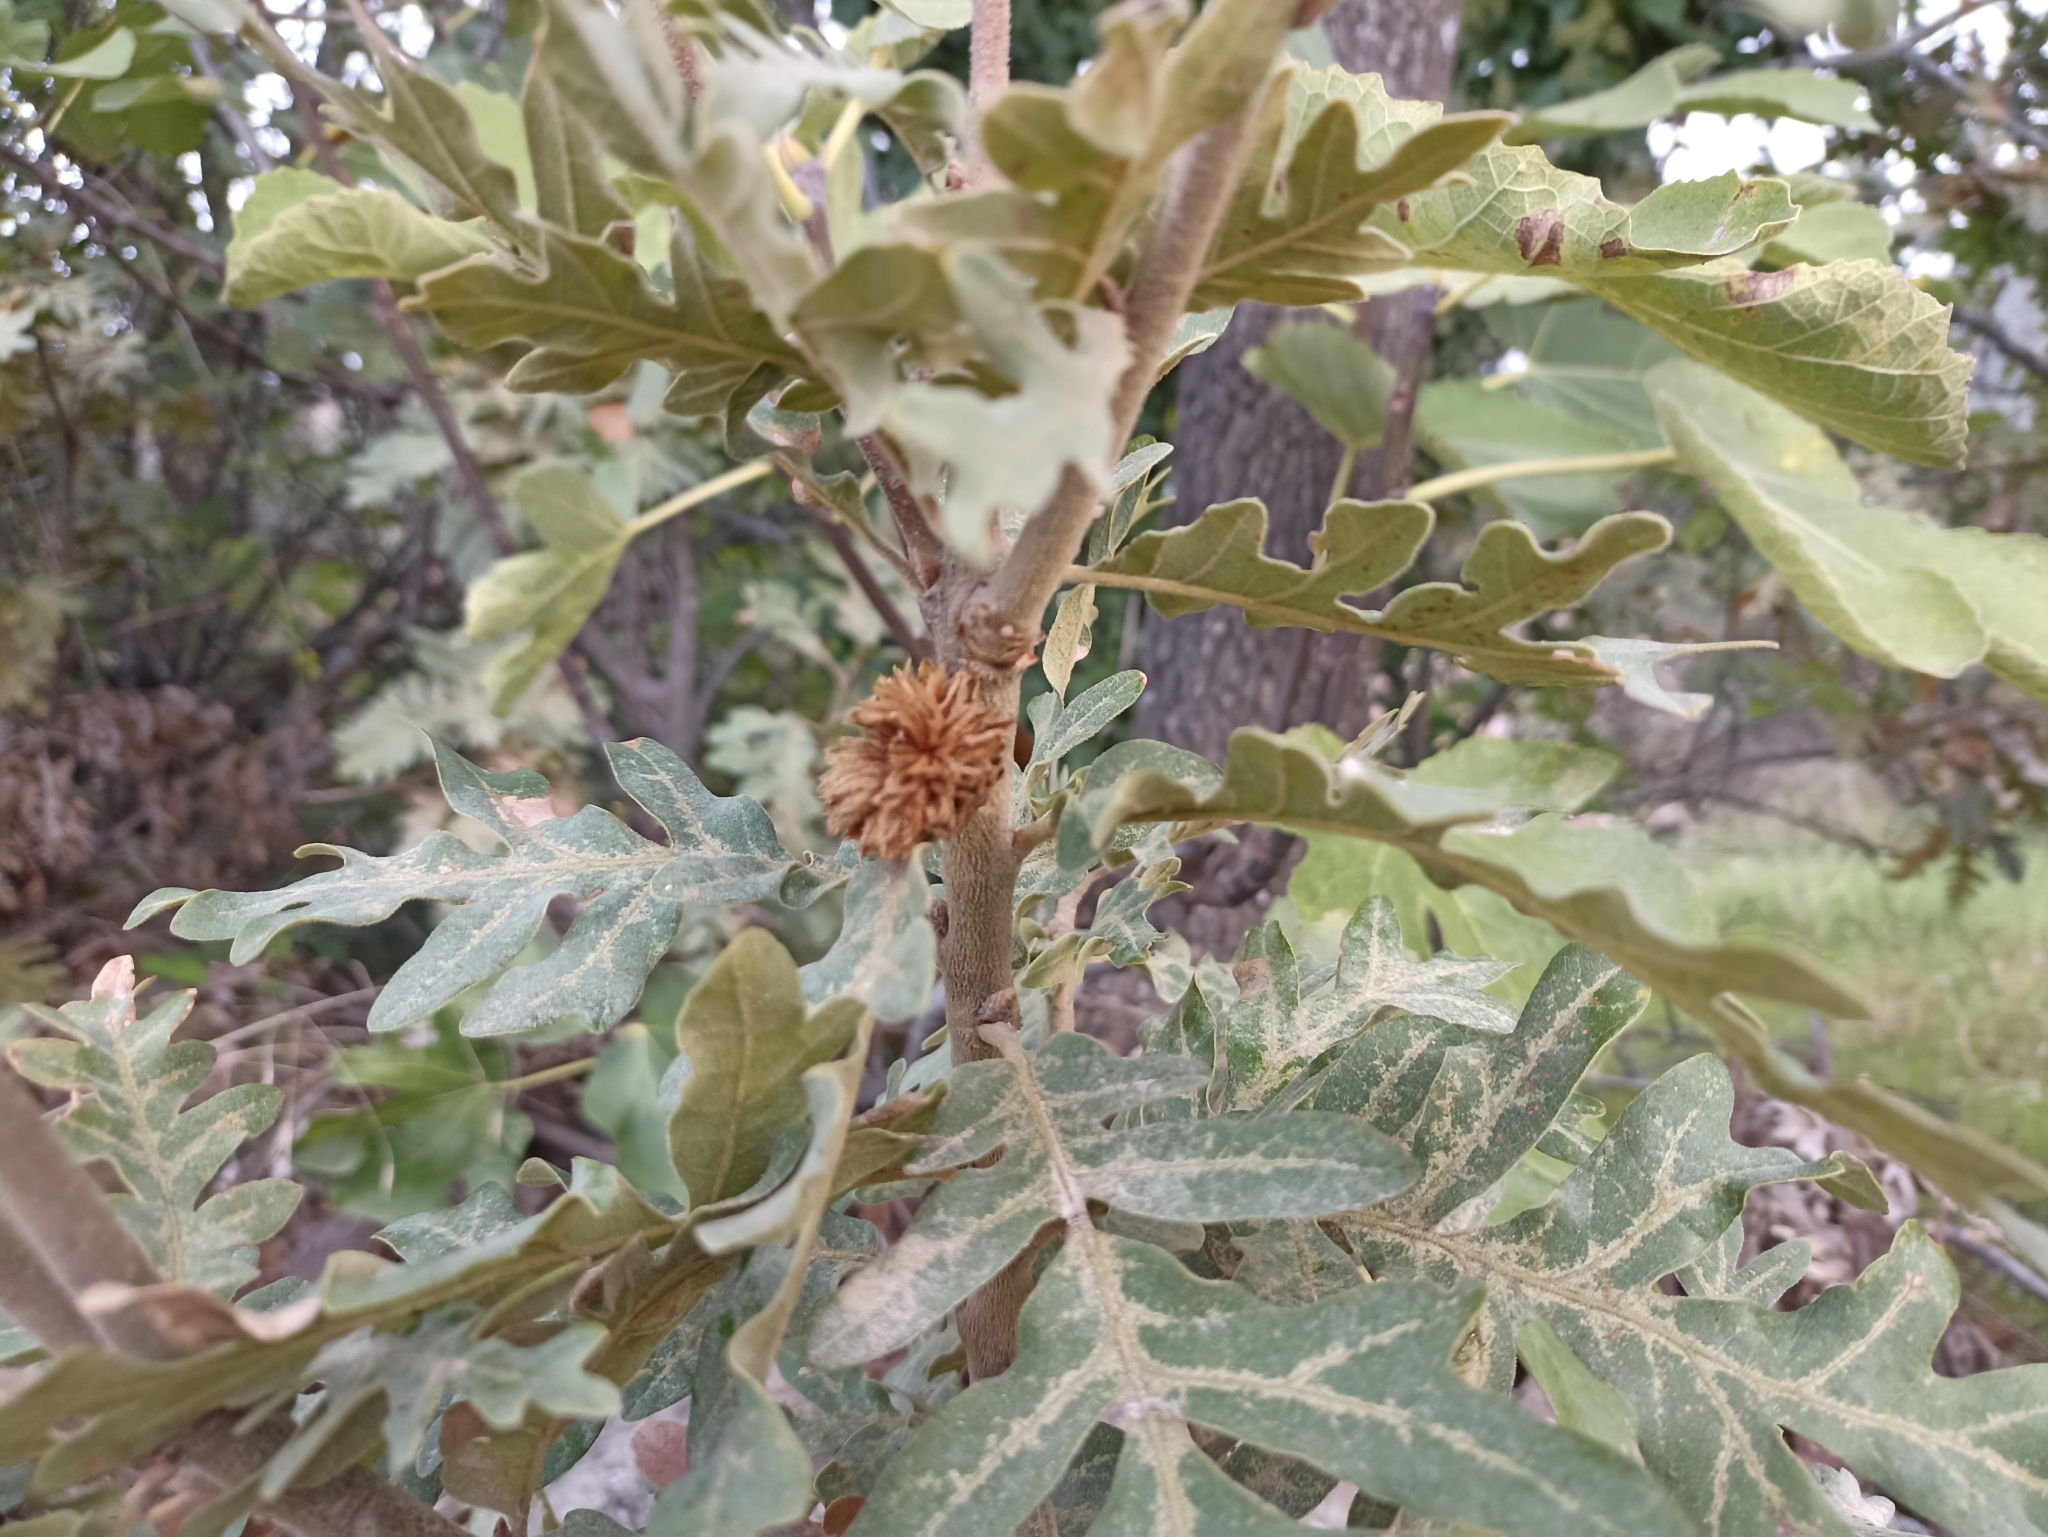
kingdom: Animalia
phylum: Arthropoda
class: Insecta
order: Hymenoptera
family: Cynipidae
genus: Andricus
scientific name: Andricus foecundatrix
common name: Artichoke gall
